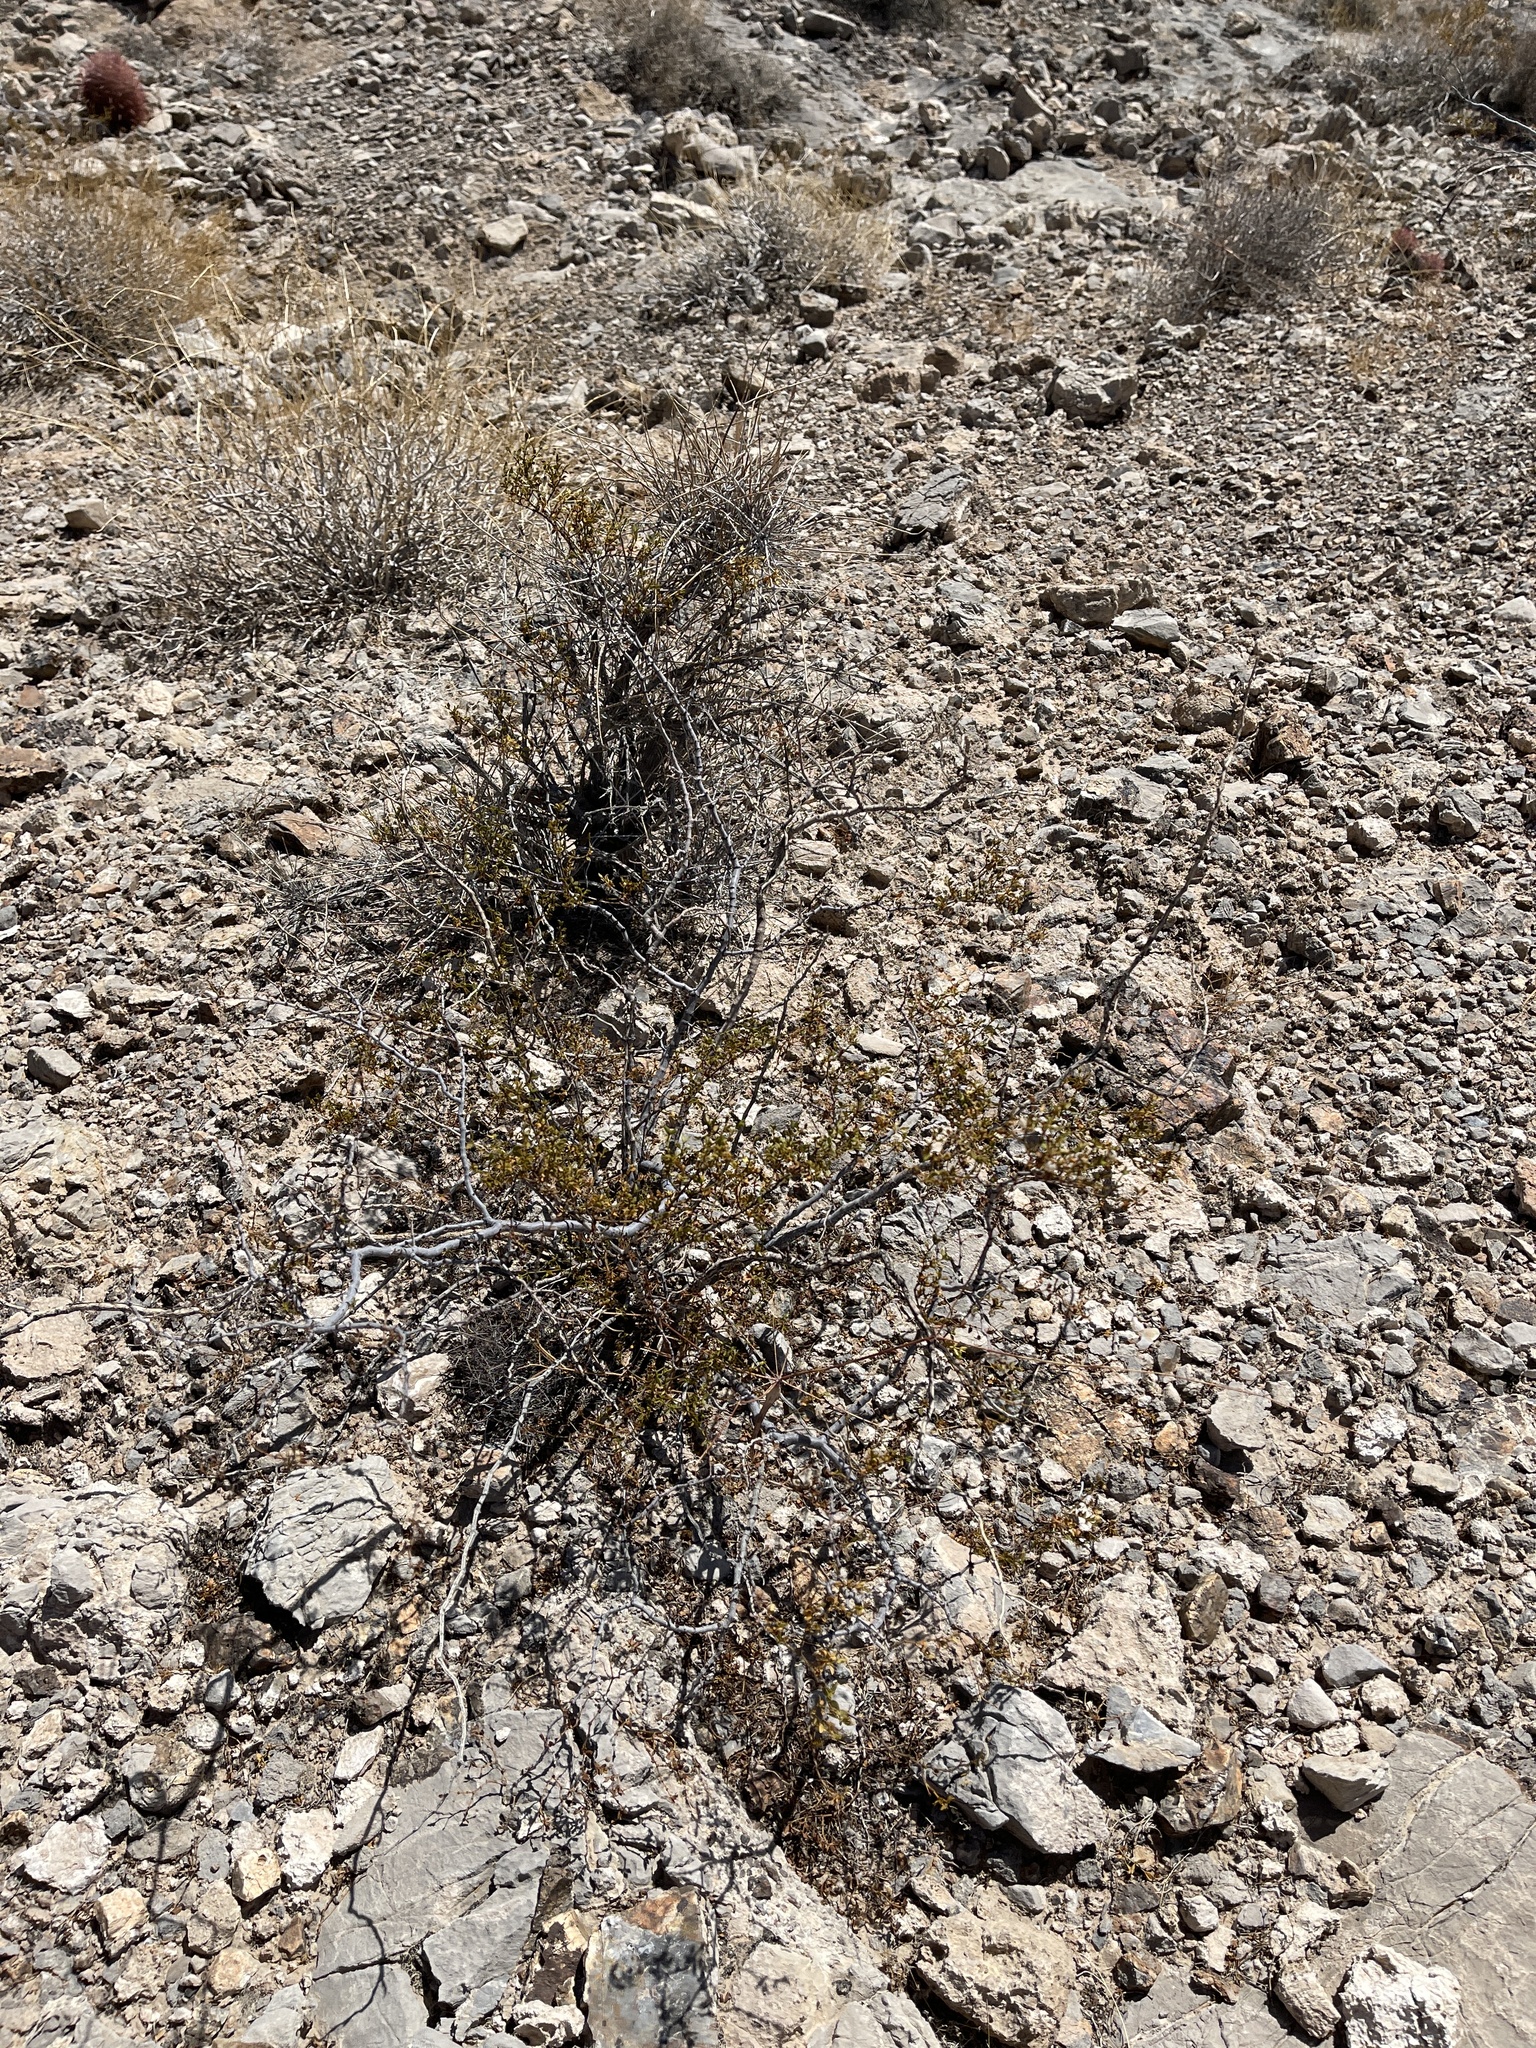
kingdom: Plantae
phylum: Tracheophyta
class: Magnoliopsida
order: Zygophyllales
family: Zygophyllaceae
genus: Larrea
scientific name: Larrea tridentata
